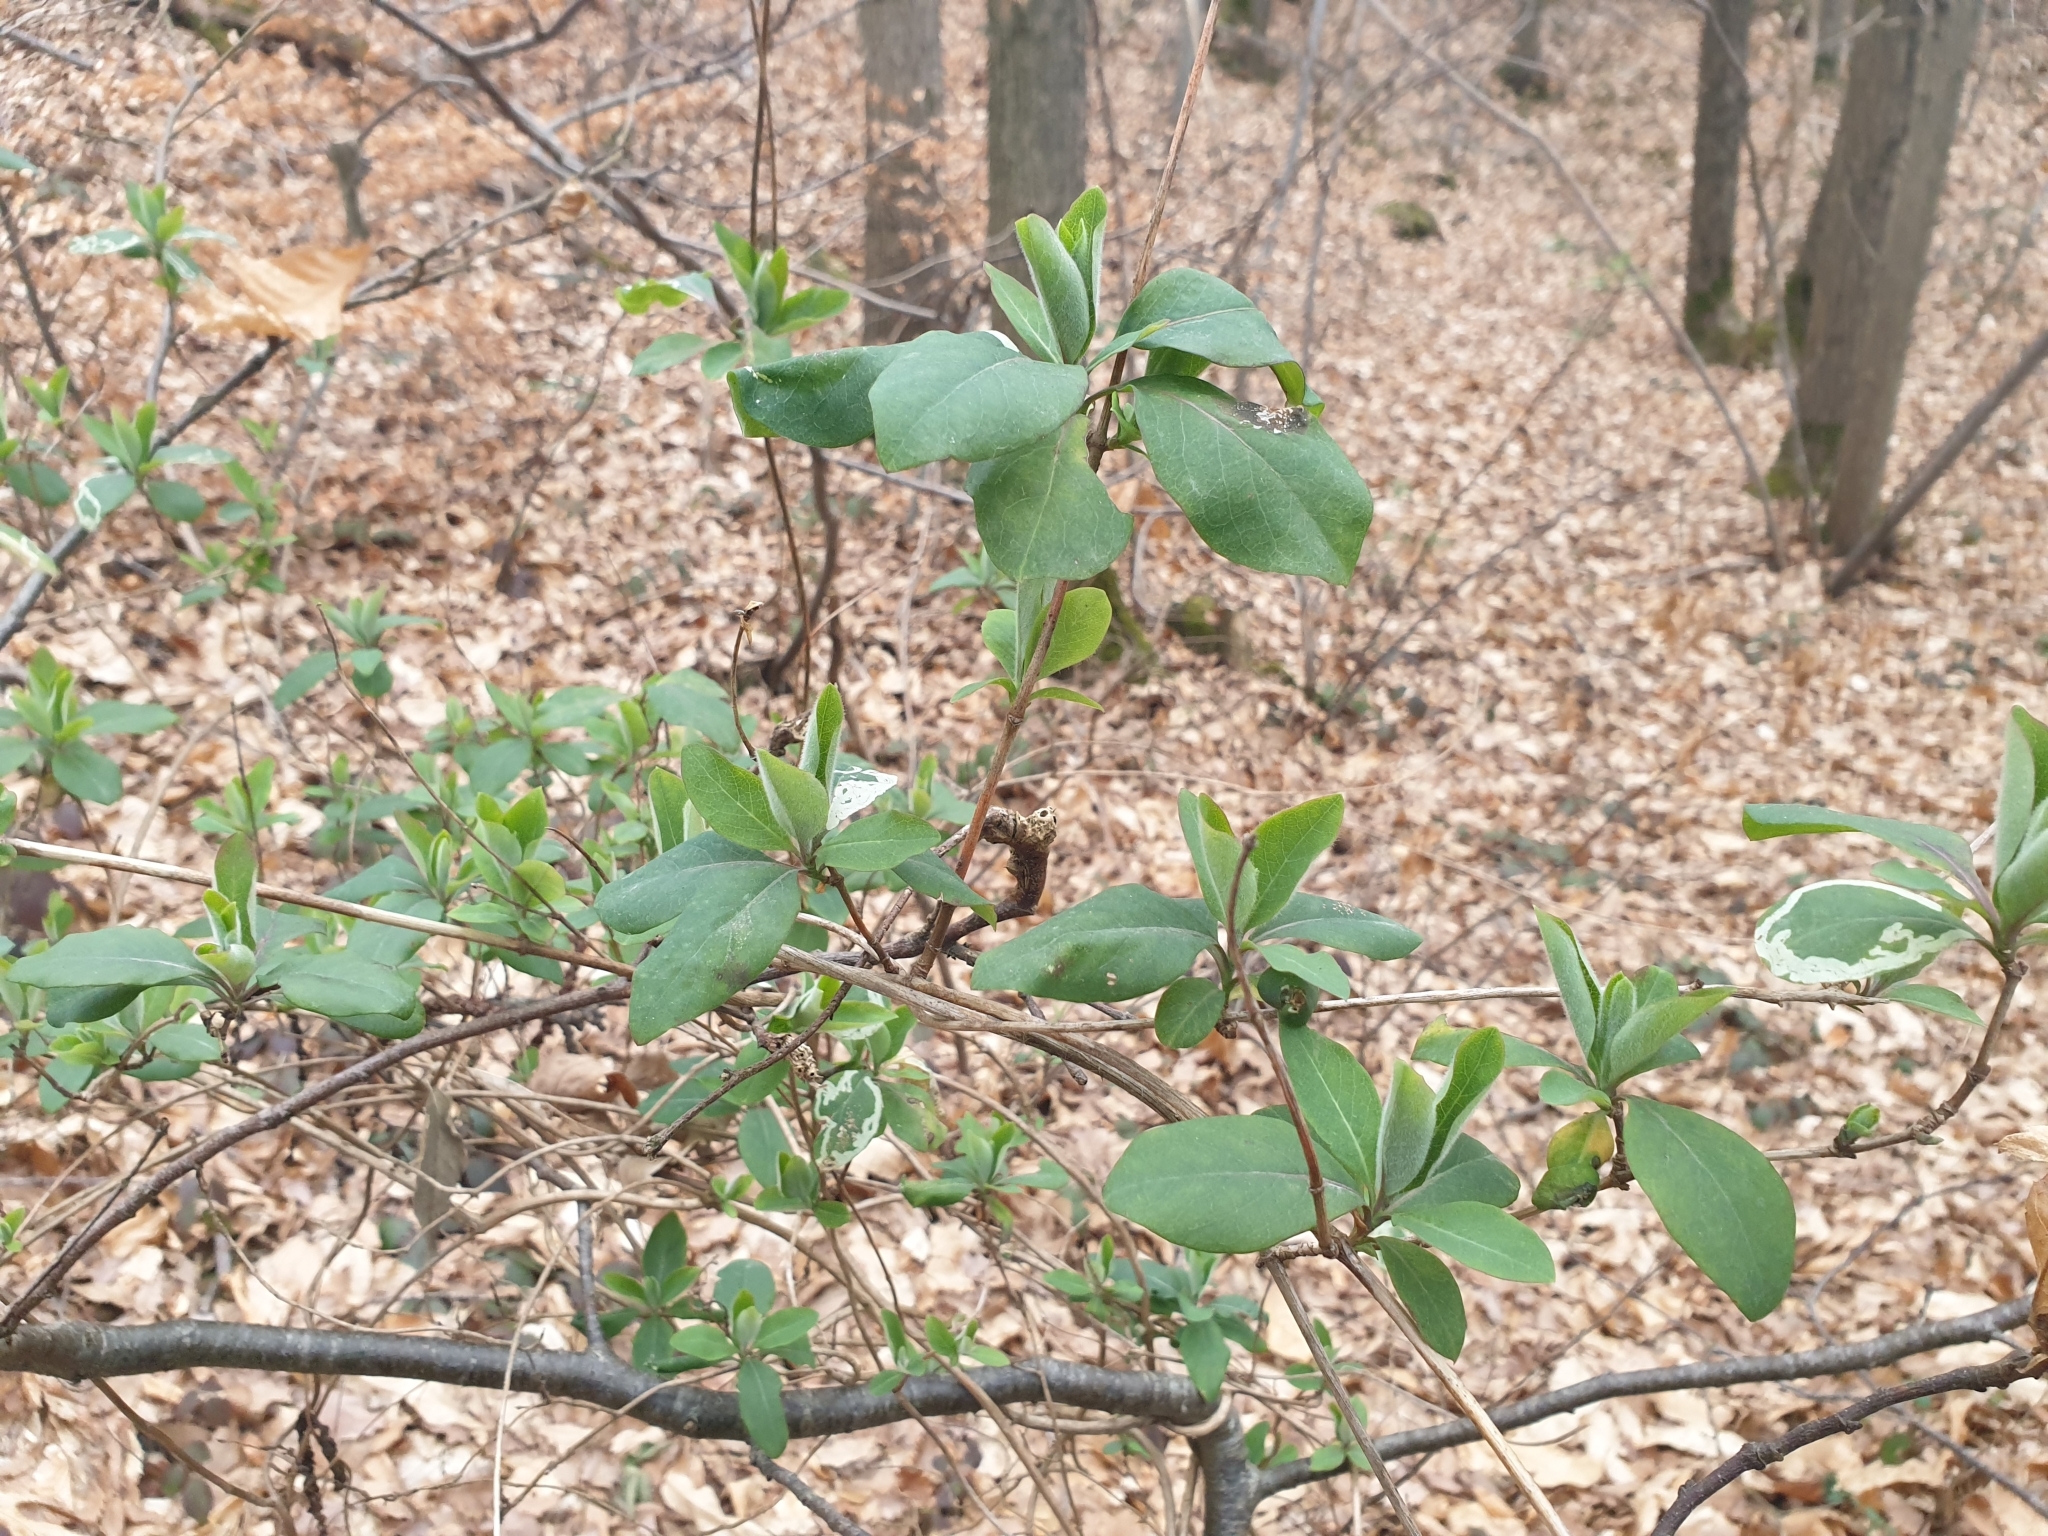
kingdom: Plantae
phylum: Tracheophyta
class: Magnoliopsida
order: Dipsacales
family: Caprifoliaceae
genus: Lonicera
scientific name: Lonicera periclymenum
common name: European honeysuckle
